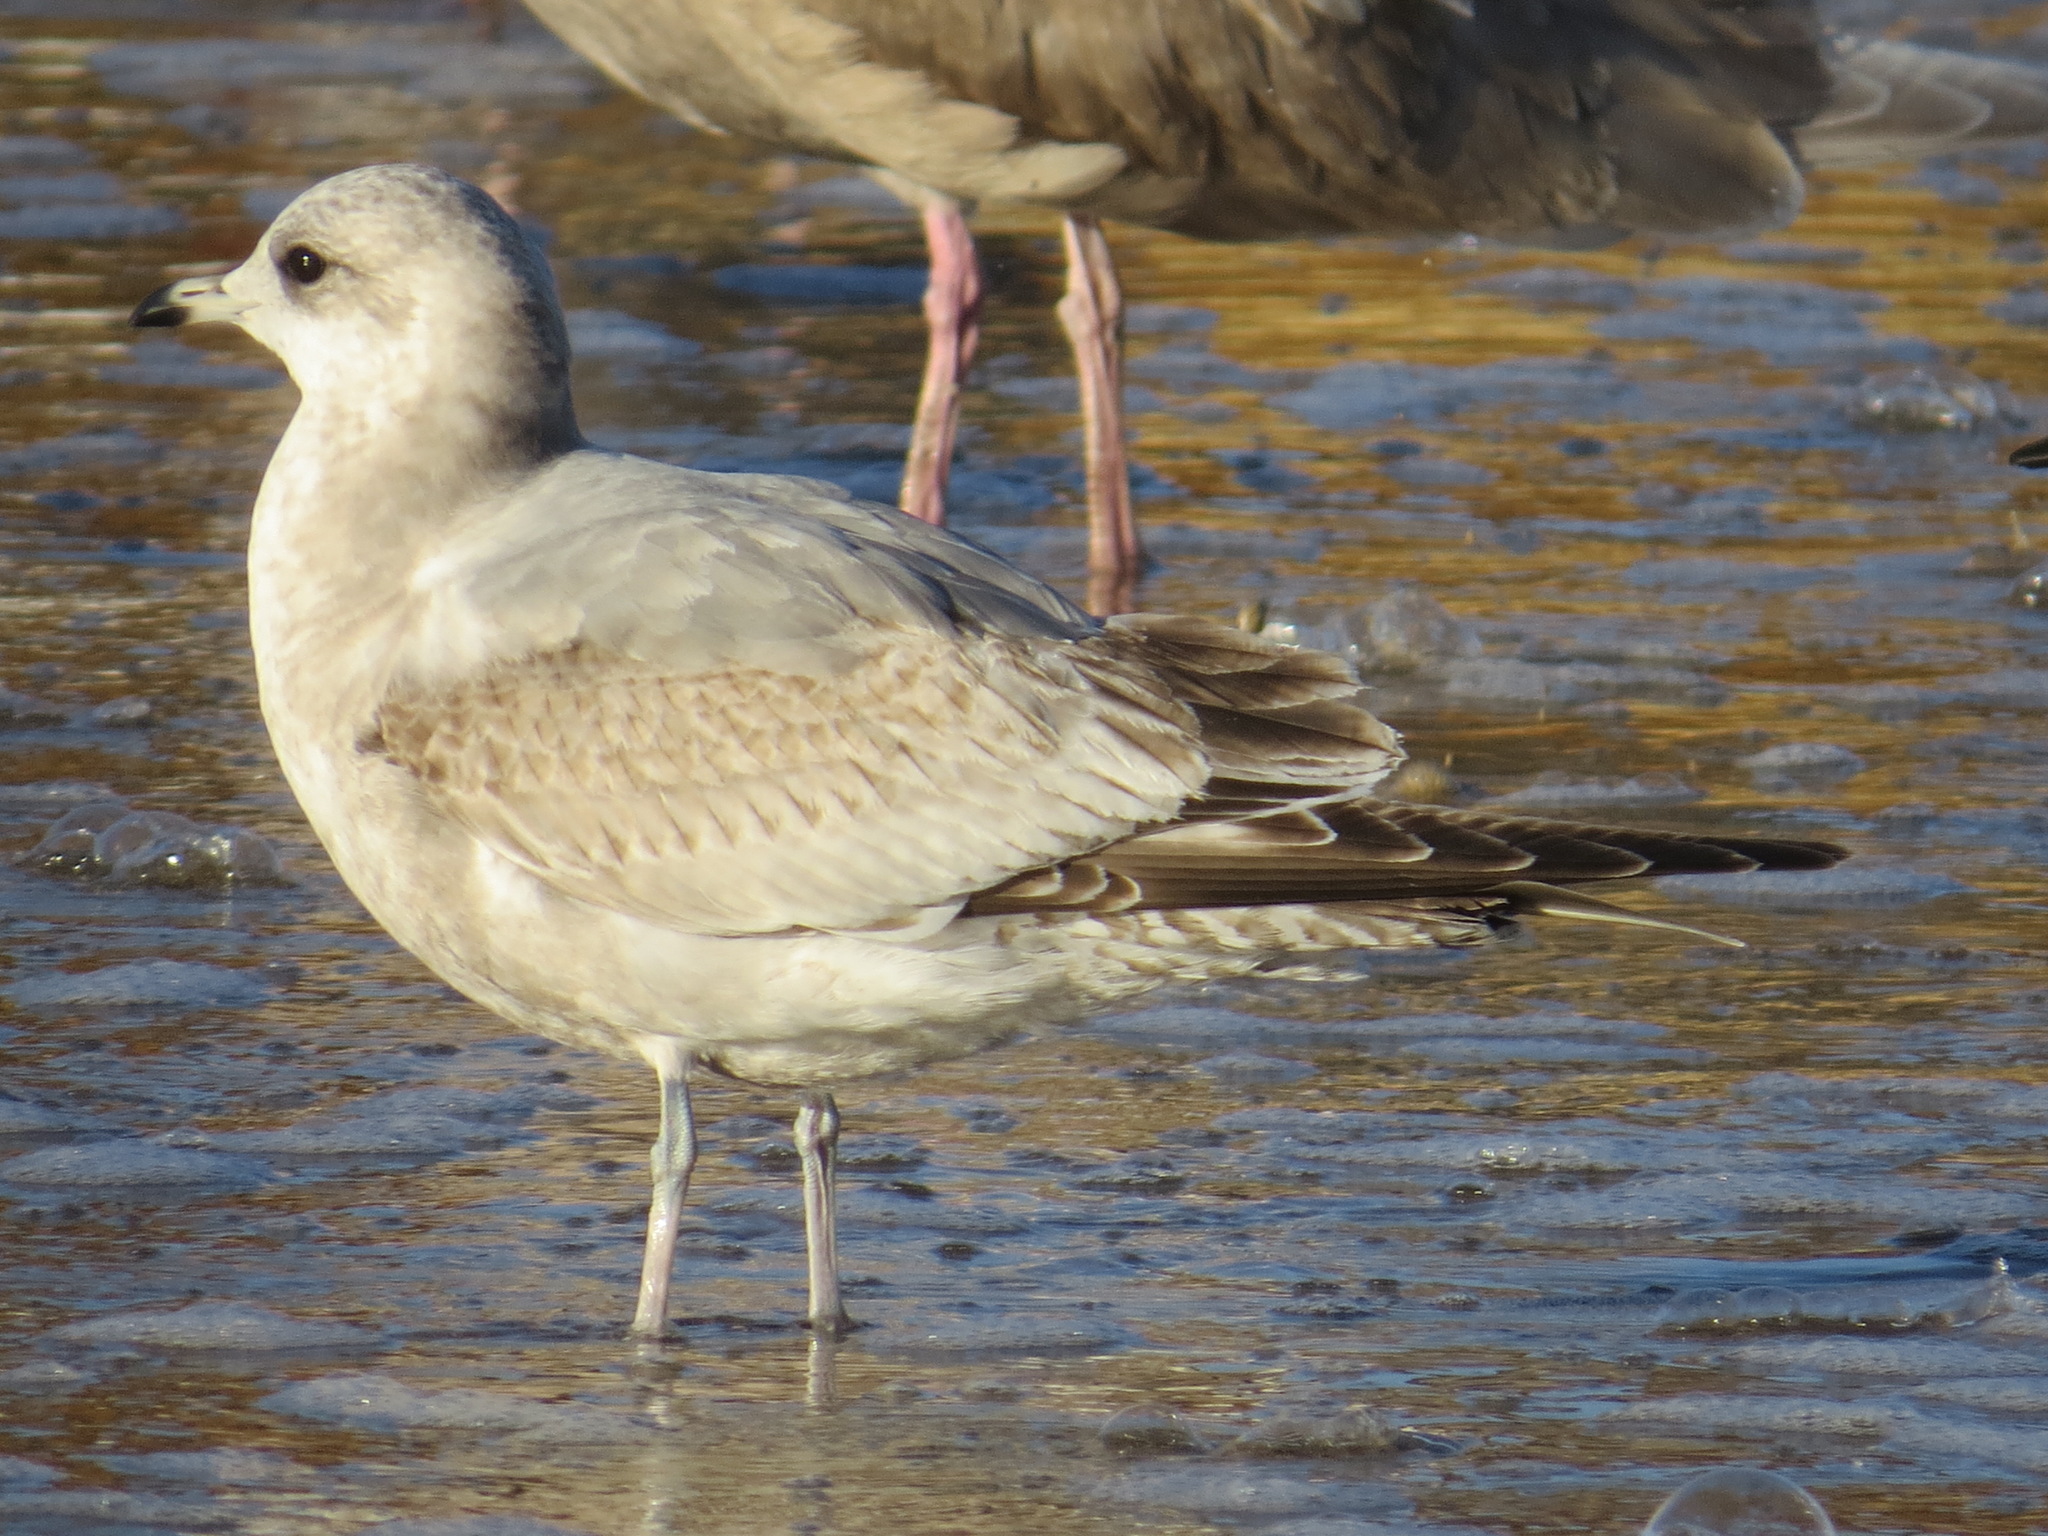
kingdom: Animalia
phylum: Chordata
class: Aves
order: Charadriiformes
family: Laridae
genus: Larus
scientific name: Larus brachyrhynchus
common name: Short-billed gull
